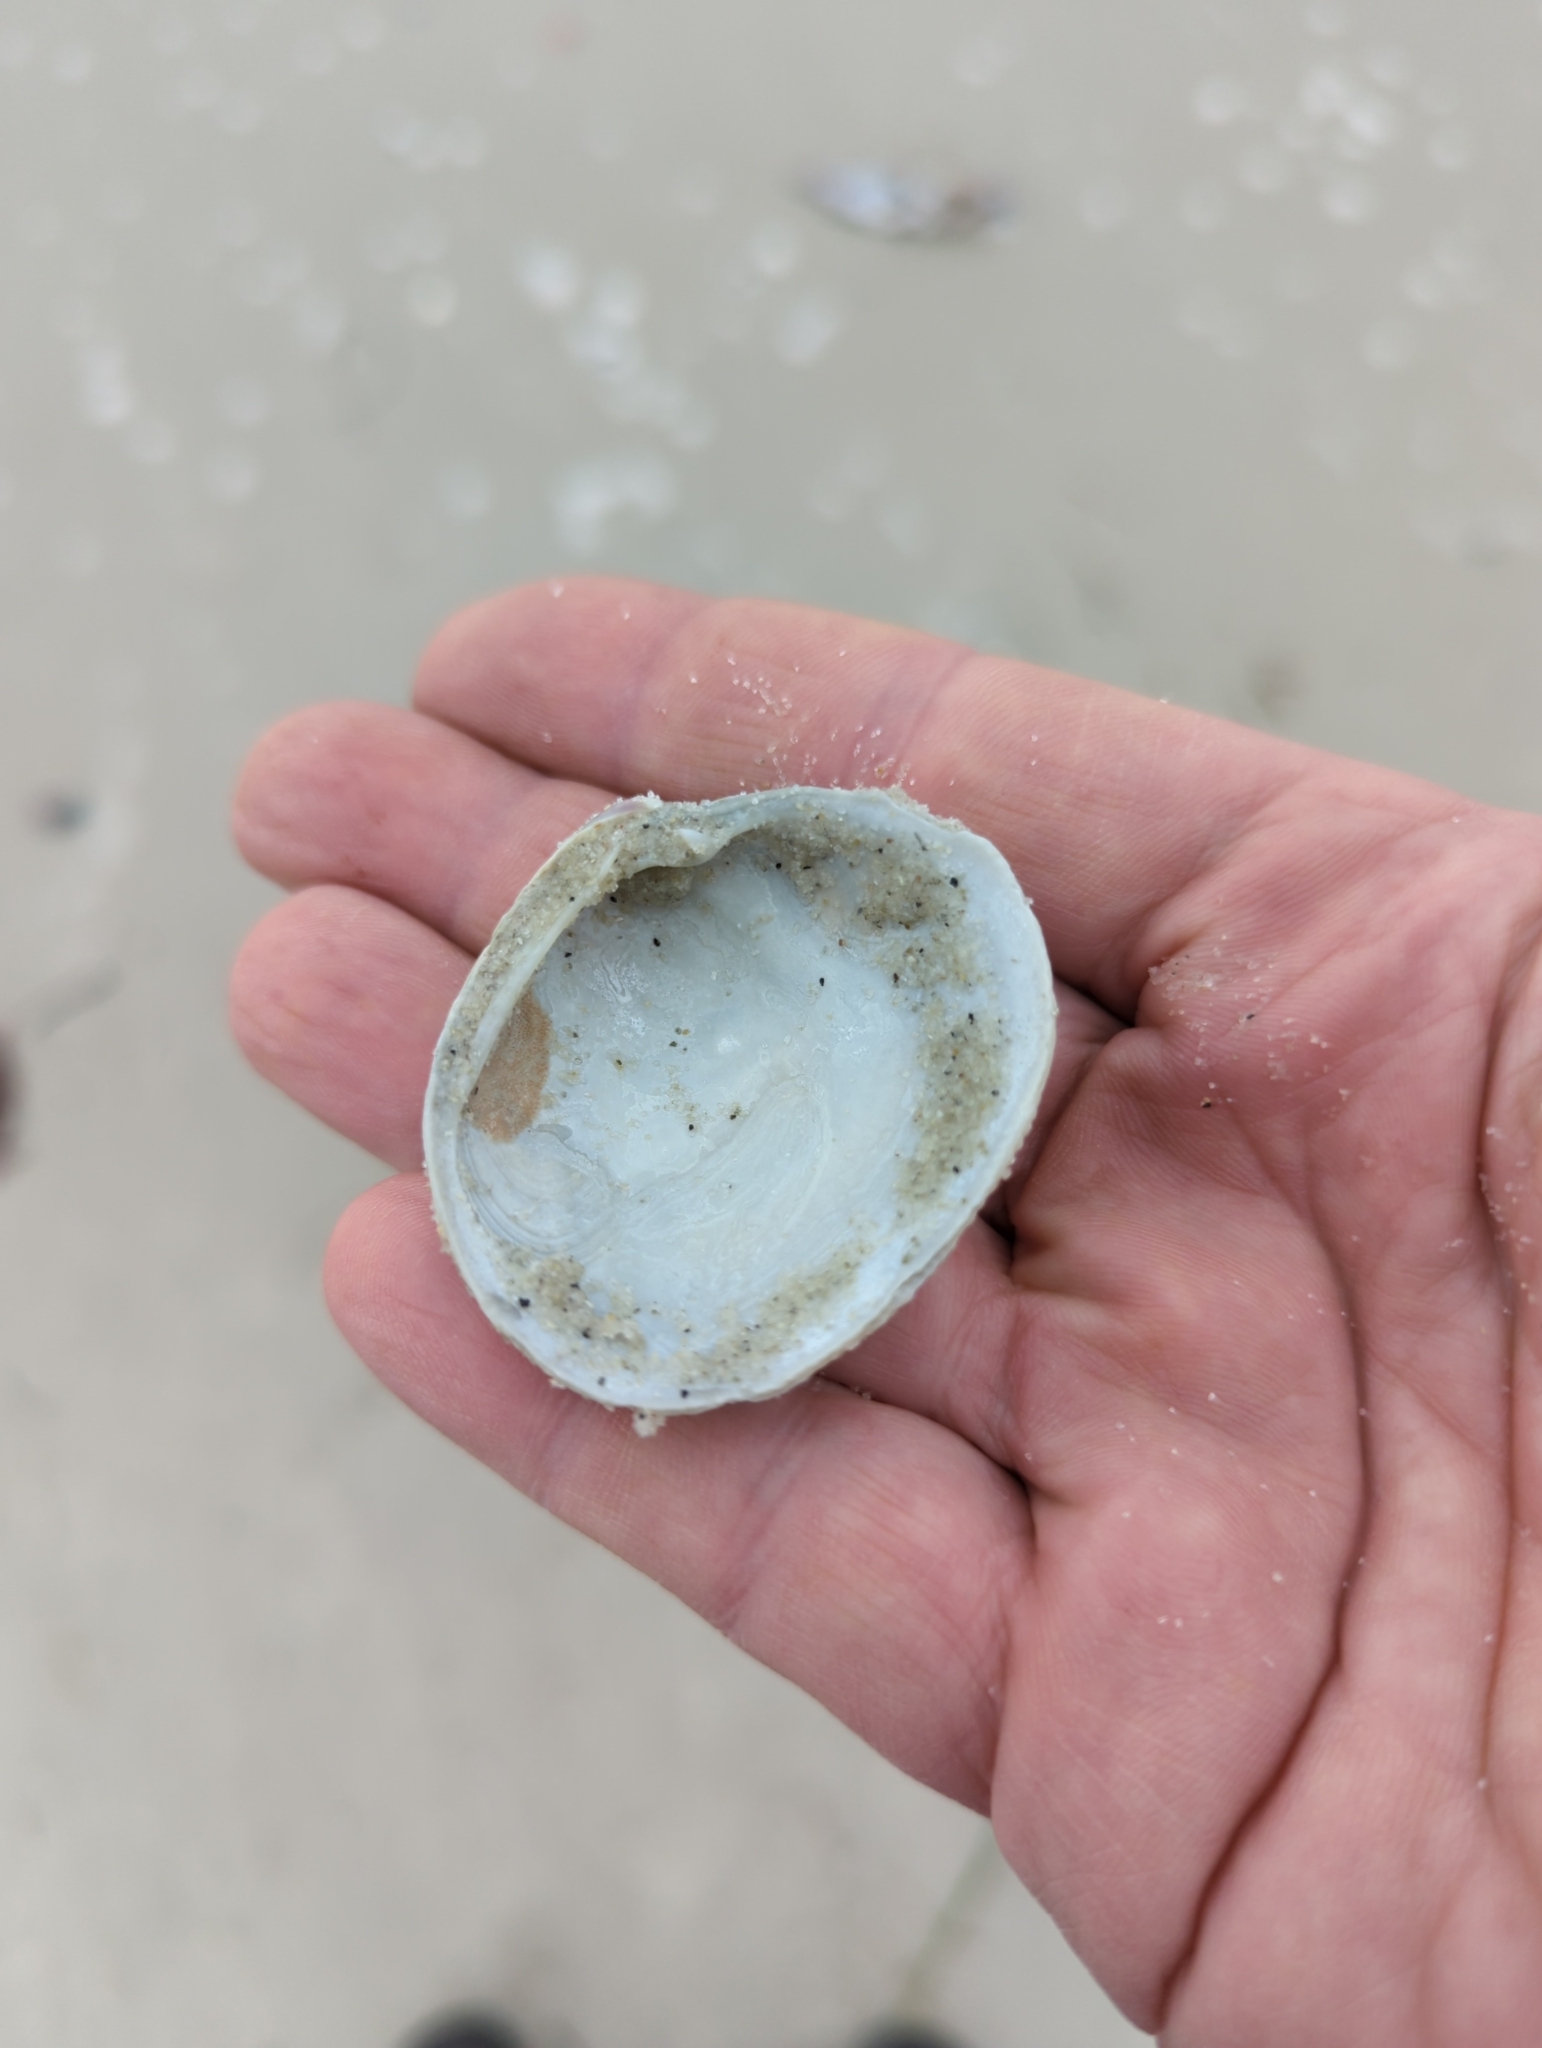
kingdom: Animalia
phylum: Mollusca
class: Bivalvia
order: Venerida
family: Veneridae
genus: Leukoma
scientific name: Leukoma staminea
